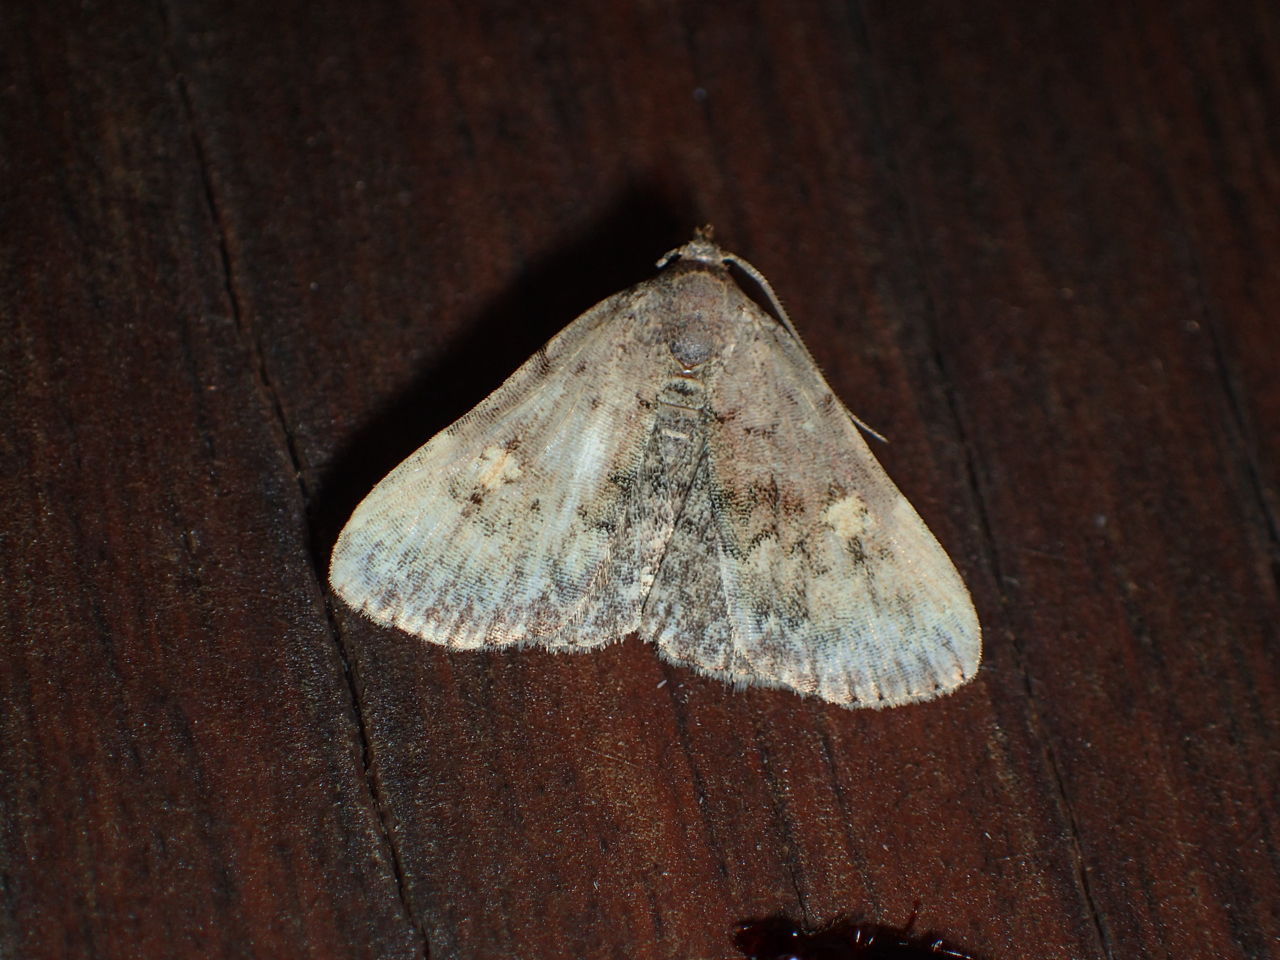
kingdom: Animalia
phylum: Arthropoda
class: Insecta
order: Lepidoptera
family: Erebidae
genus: Idia
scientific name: Idia aemula
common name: Common idia moth
